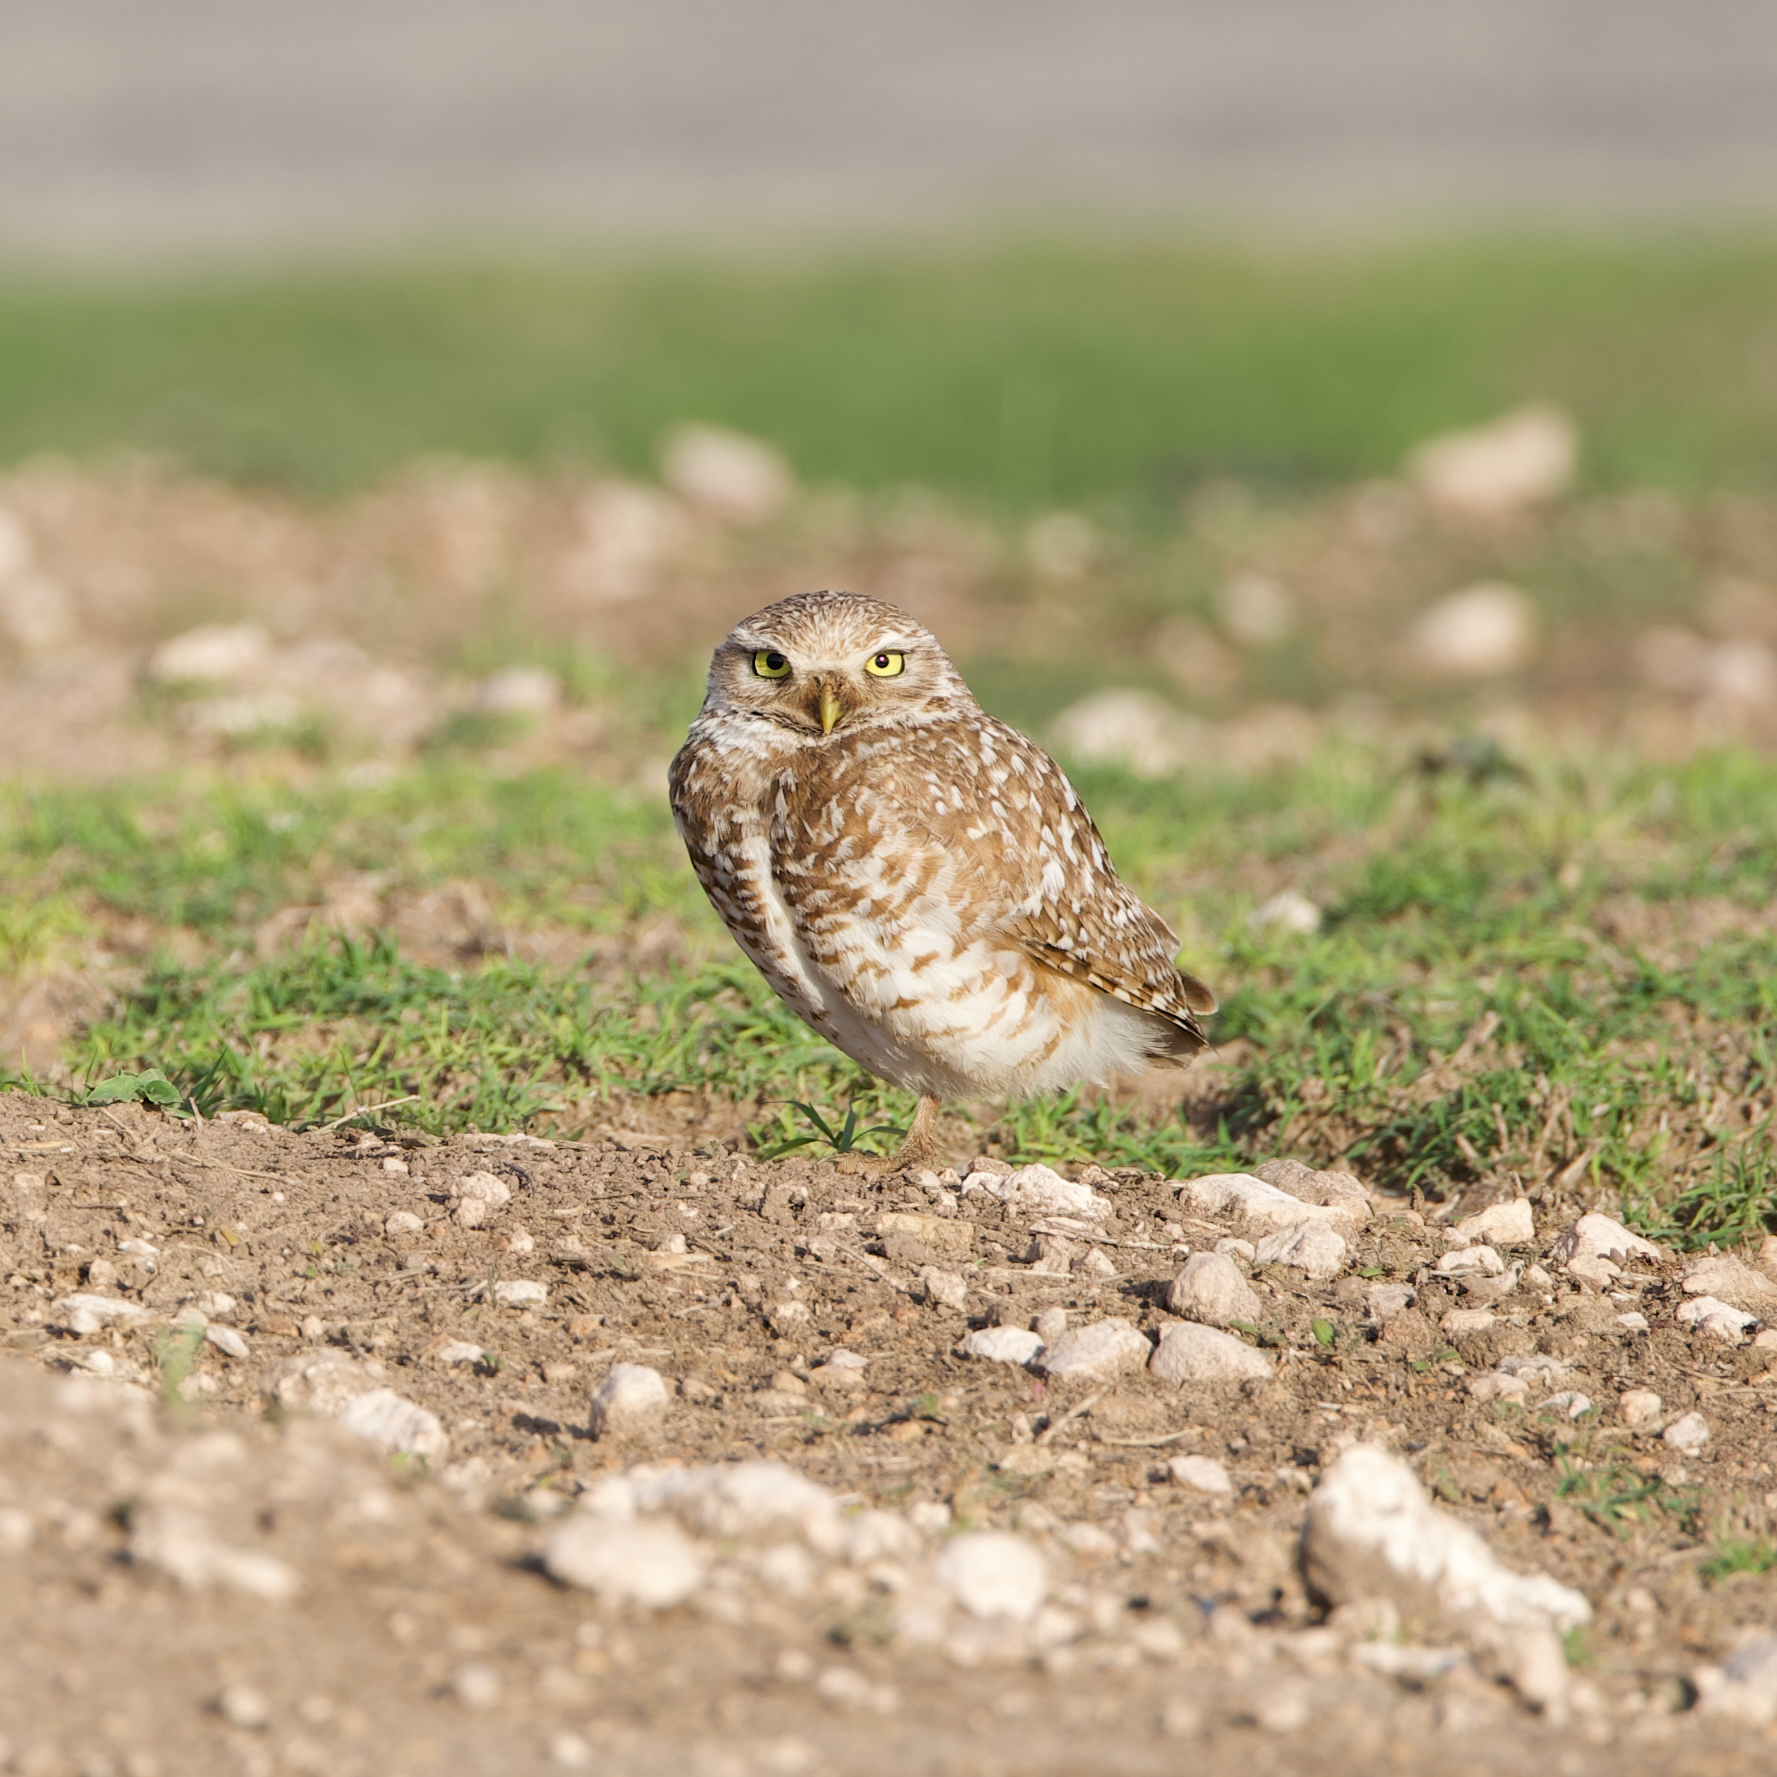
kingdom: Animalia
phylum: Chordata
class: Aves
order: Strigiformes
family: Strigidae
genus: Athene
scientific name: Athene cunicularia
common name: Burrowing owl
